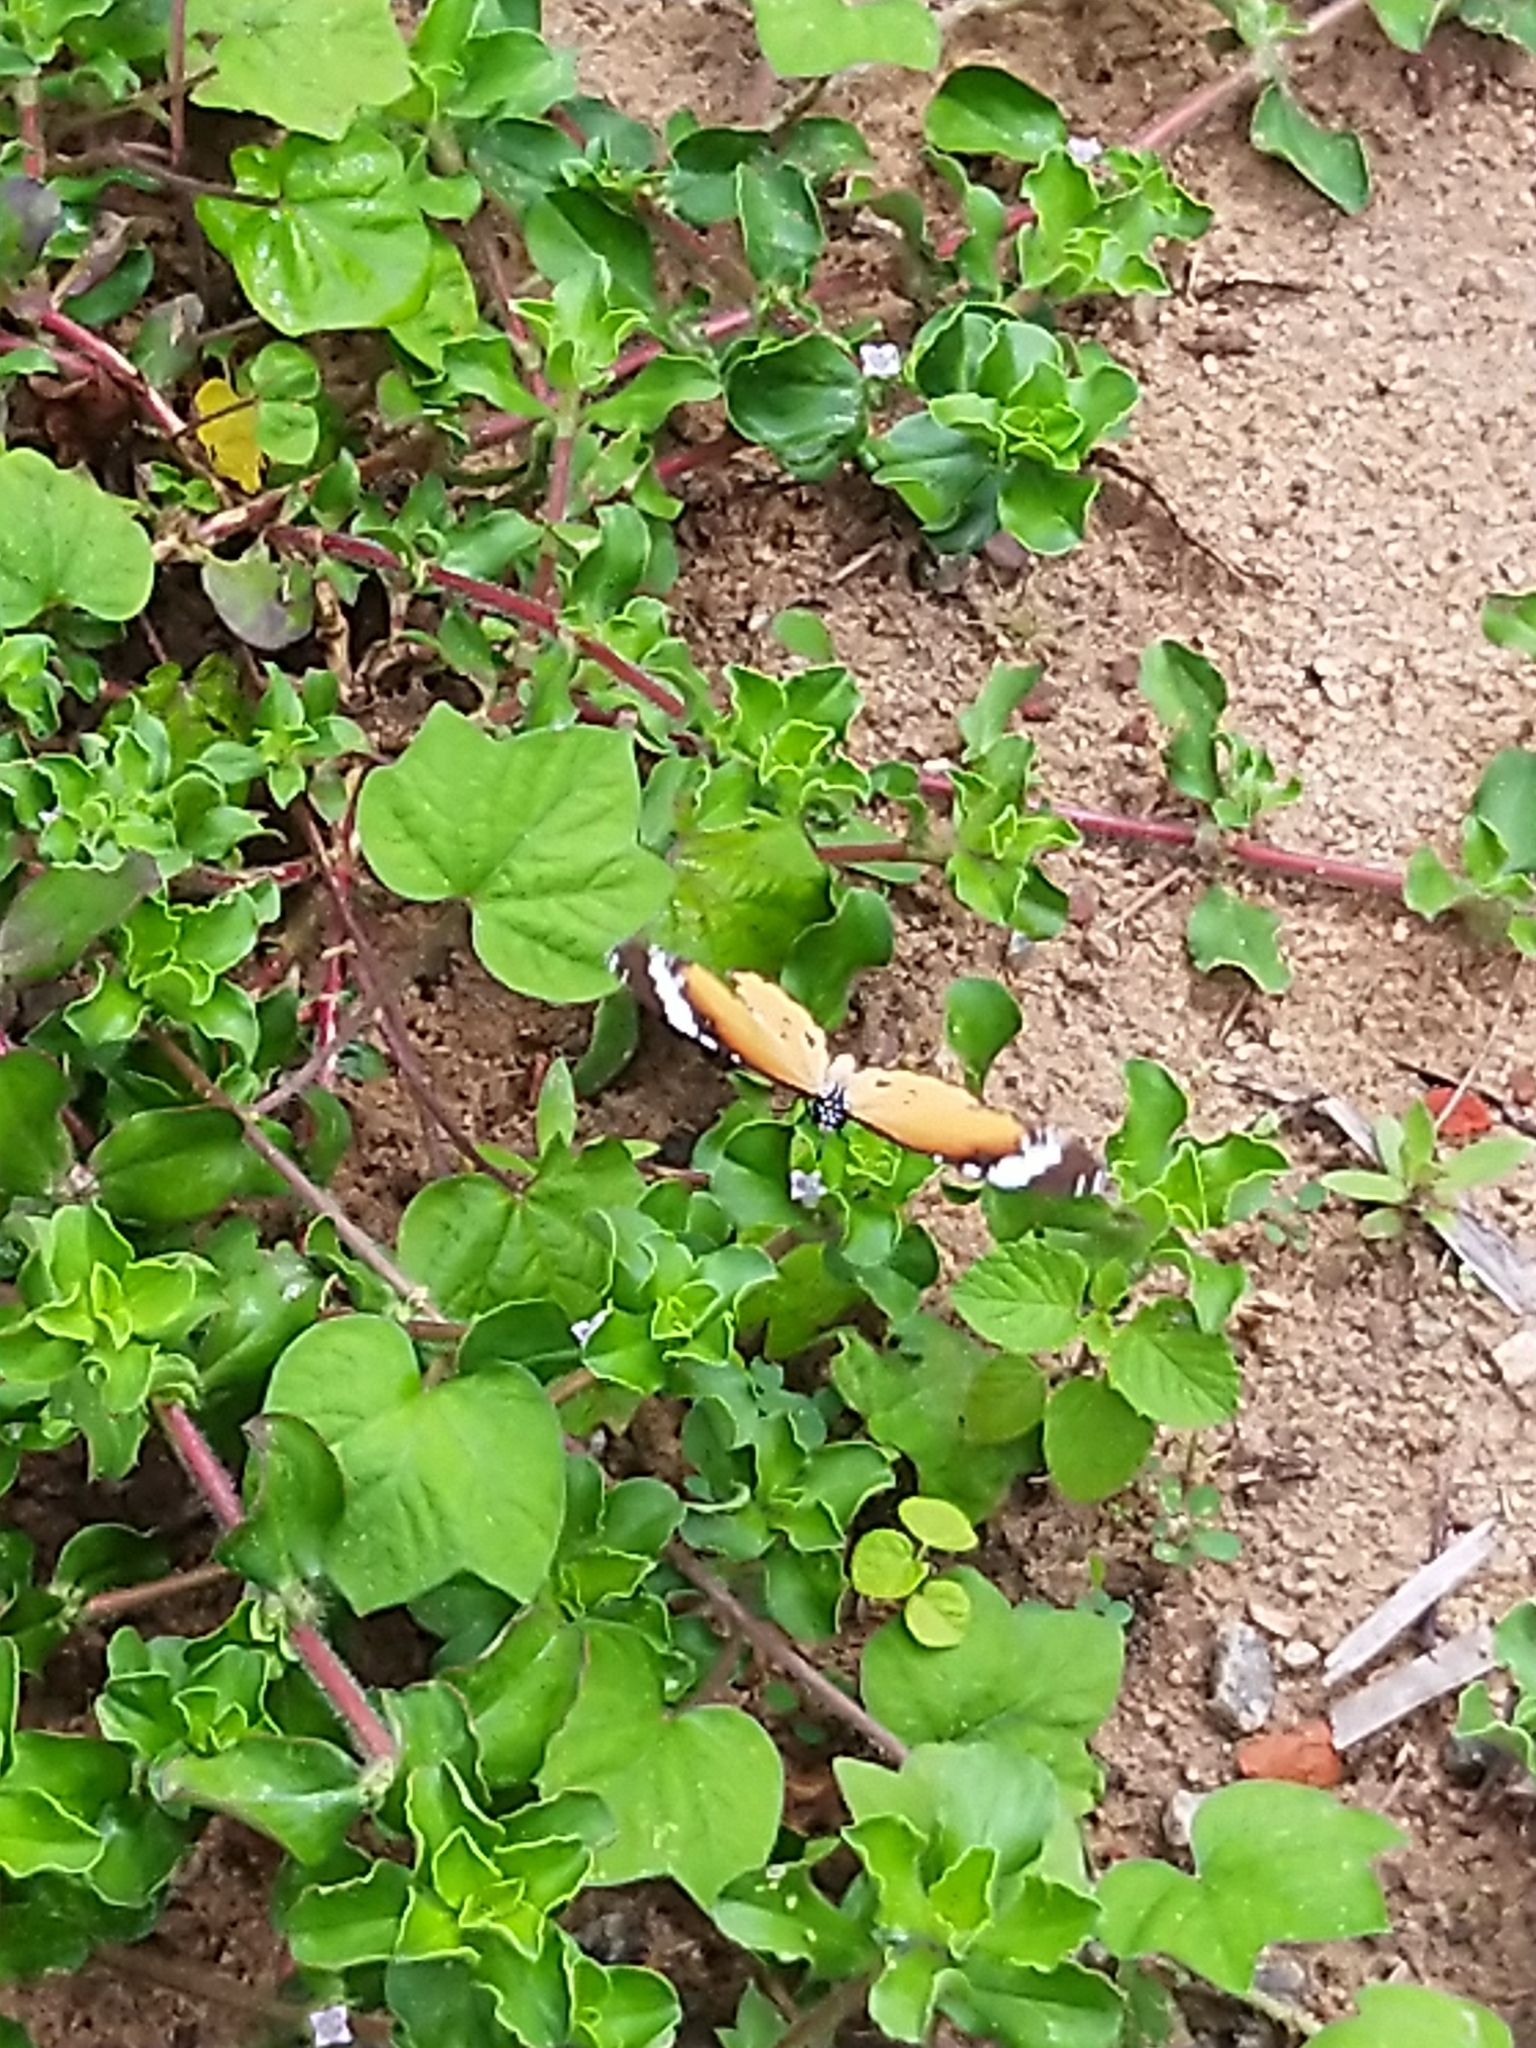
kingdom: Animalia
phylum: Arthropoda
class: Insecta
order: Lepidoptera
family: Nymphalidae
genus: Danaus
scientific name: Danaus chrysippus
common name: Plain tiger
